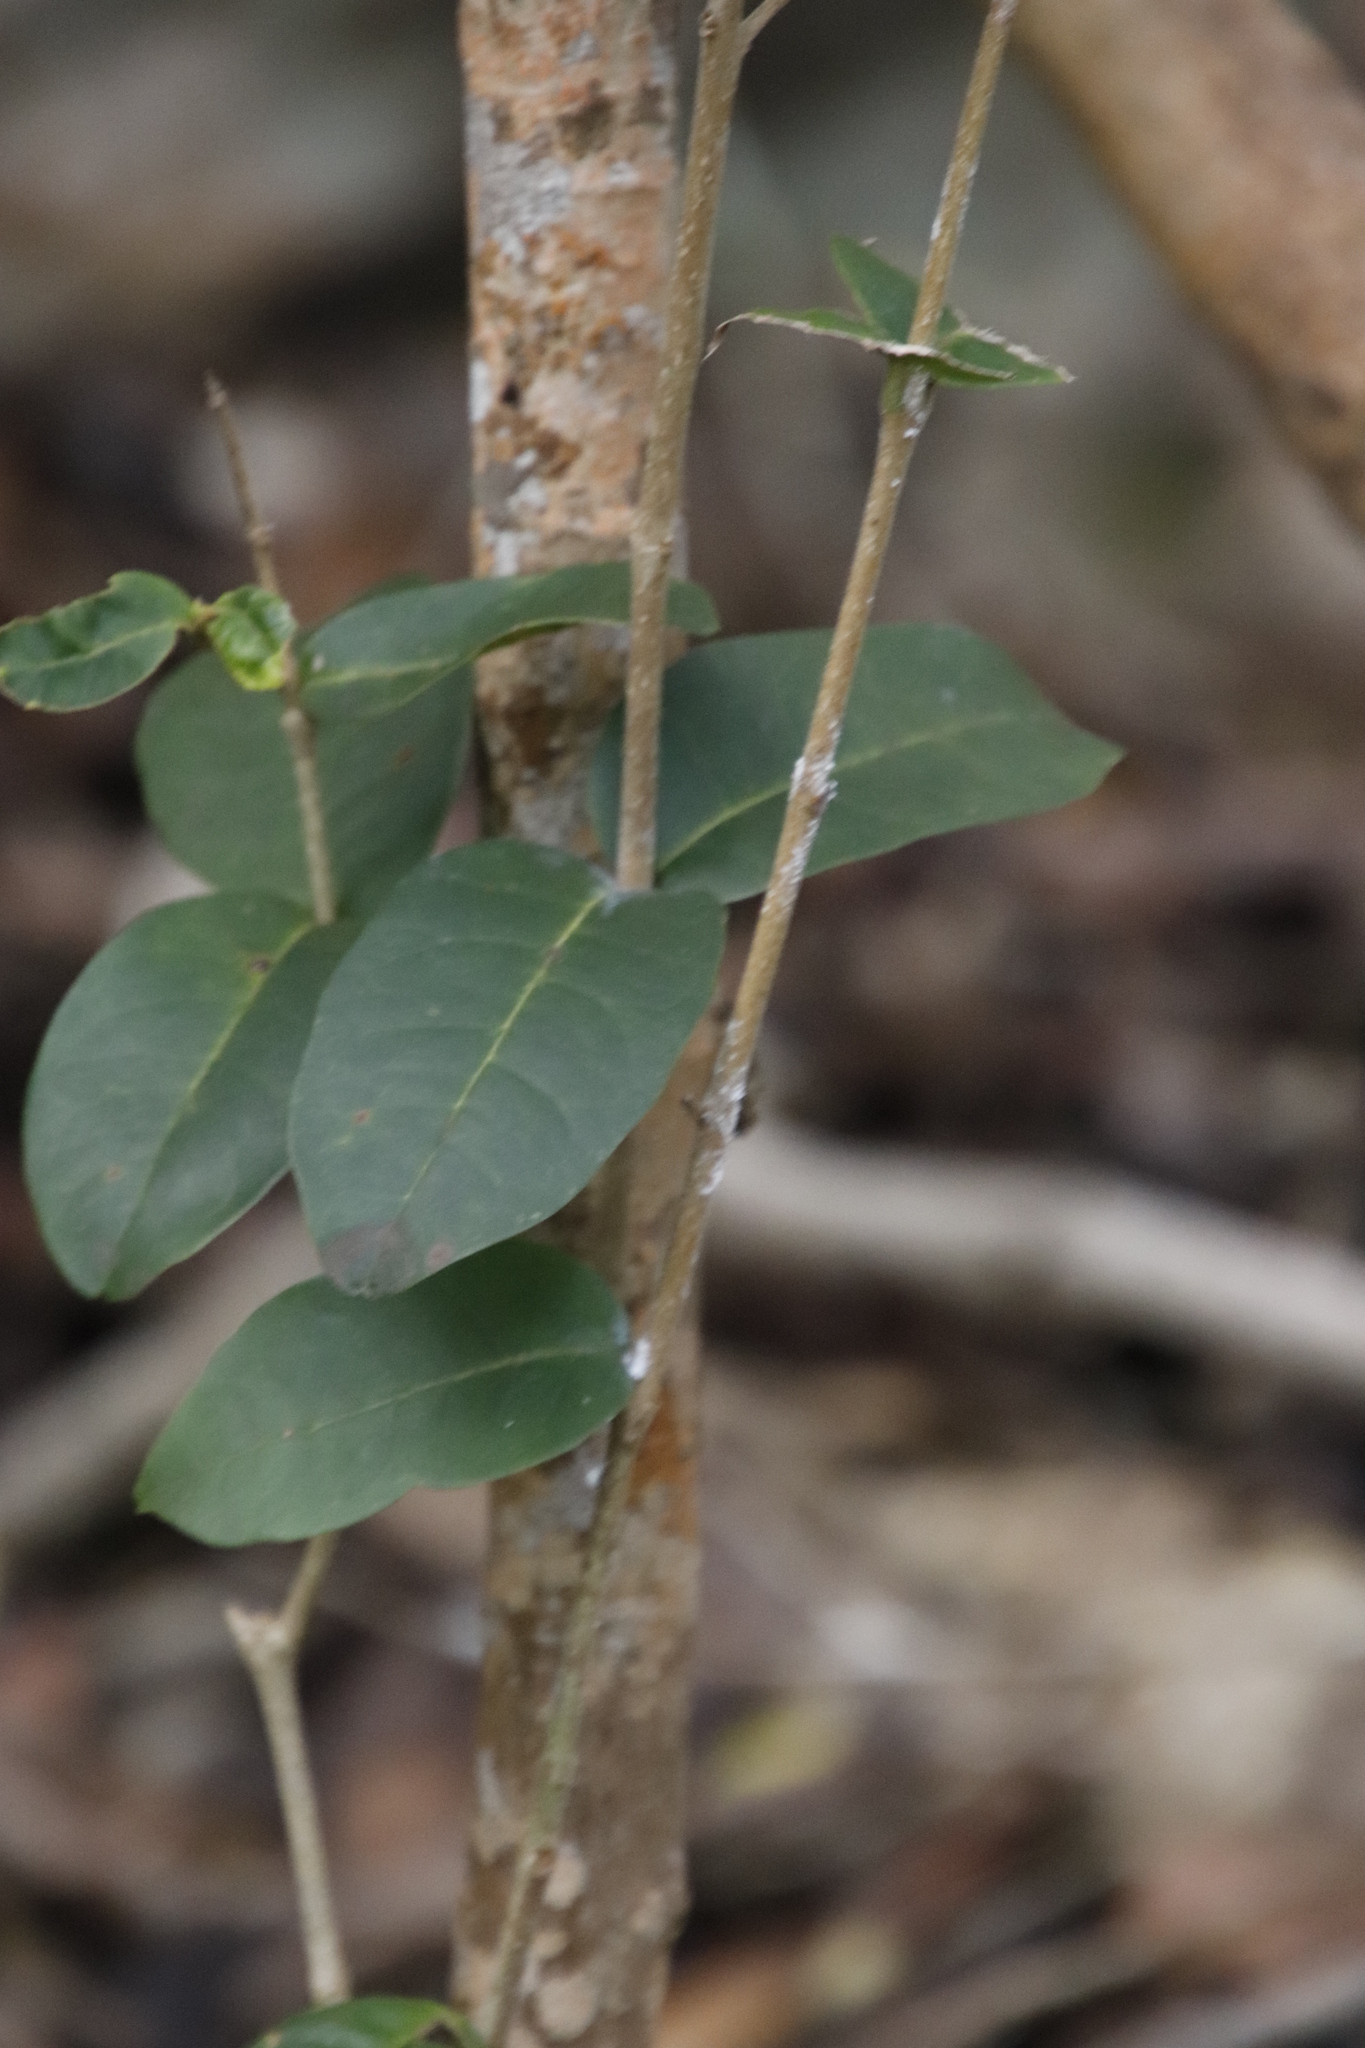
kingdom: Plantae
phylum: Tracheophyta
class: Magnoliopsida
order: Lamiales
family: Oleaceae
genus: Noronhia
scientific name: Noronhia foveolata
